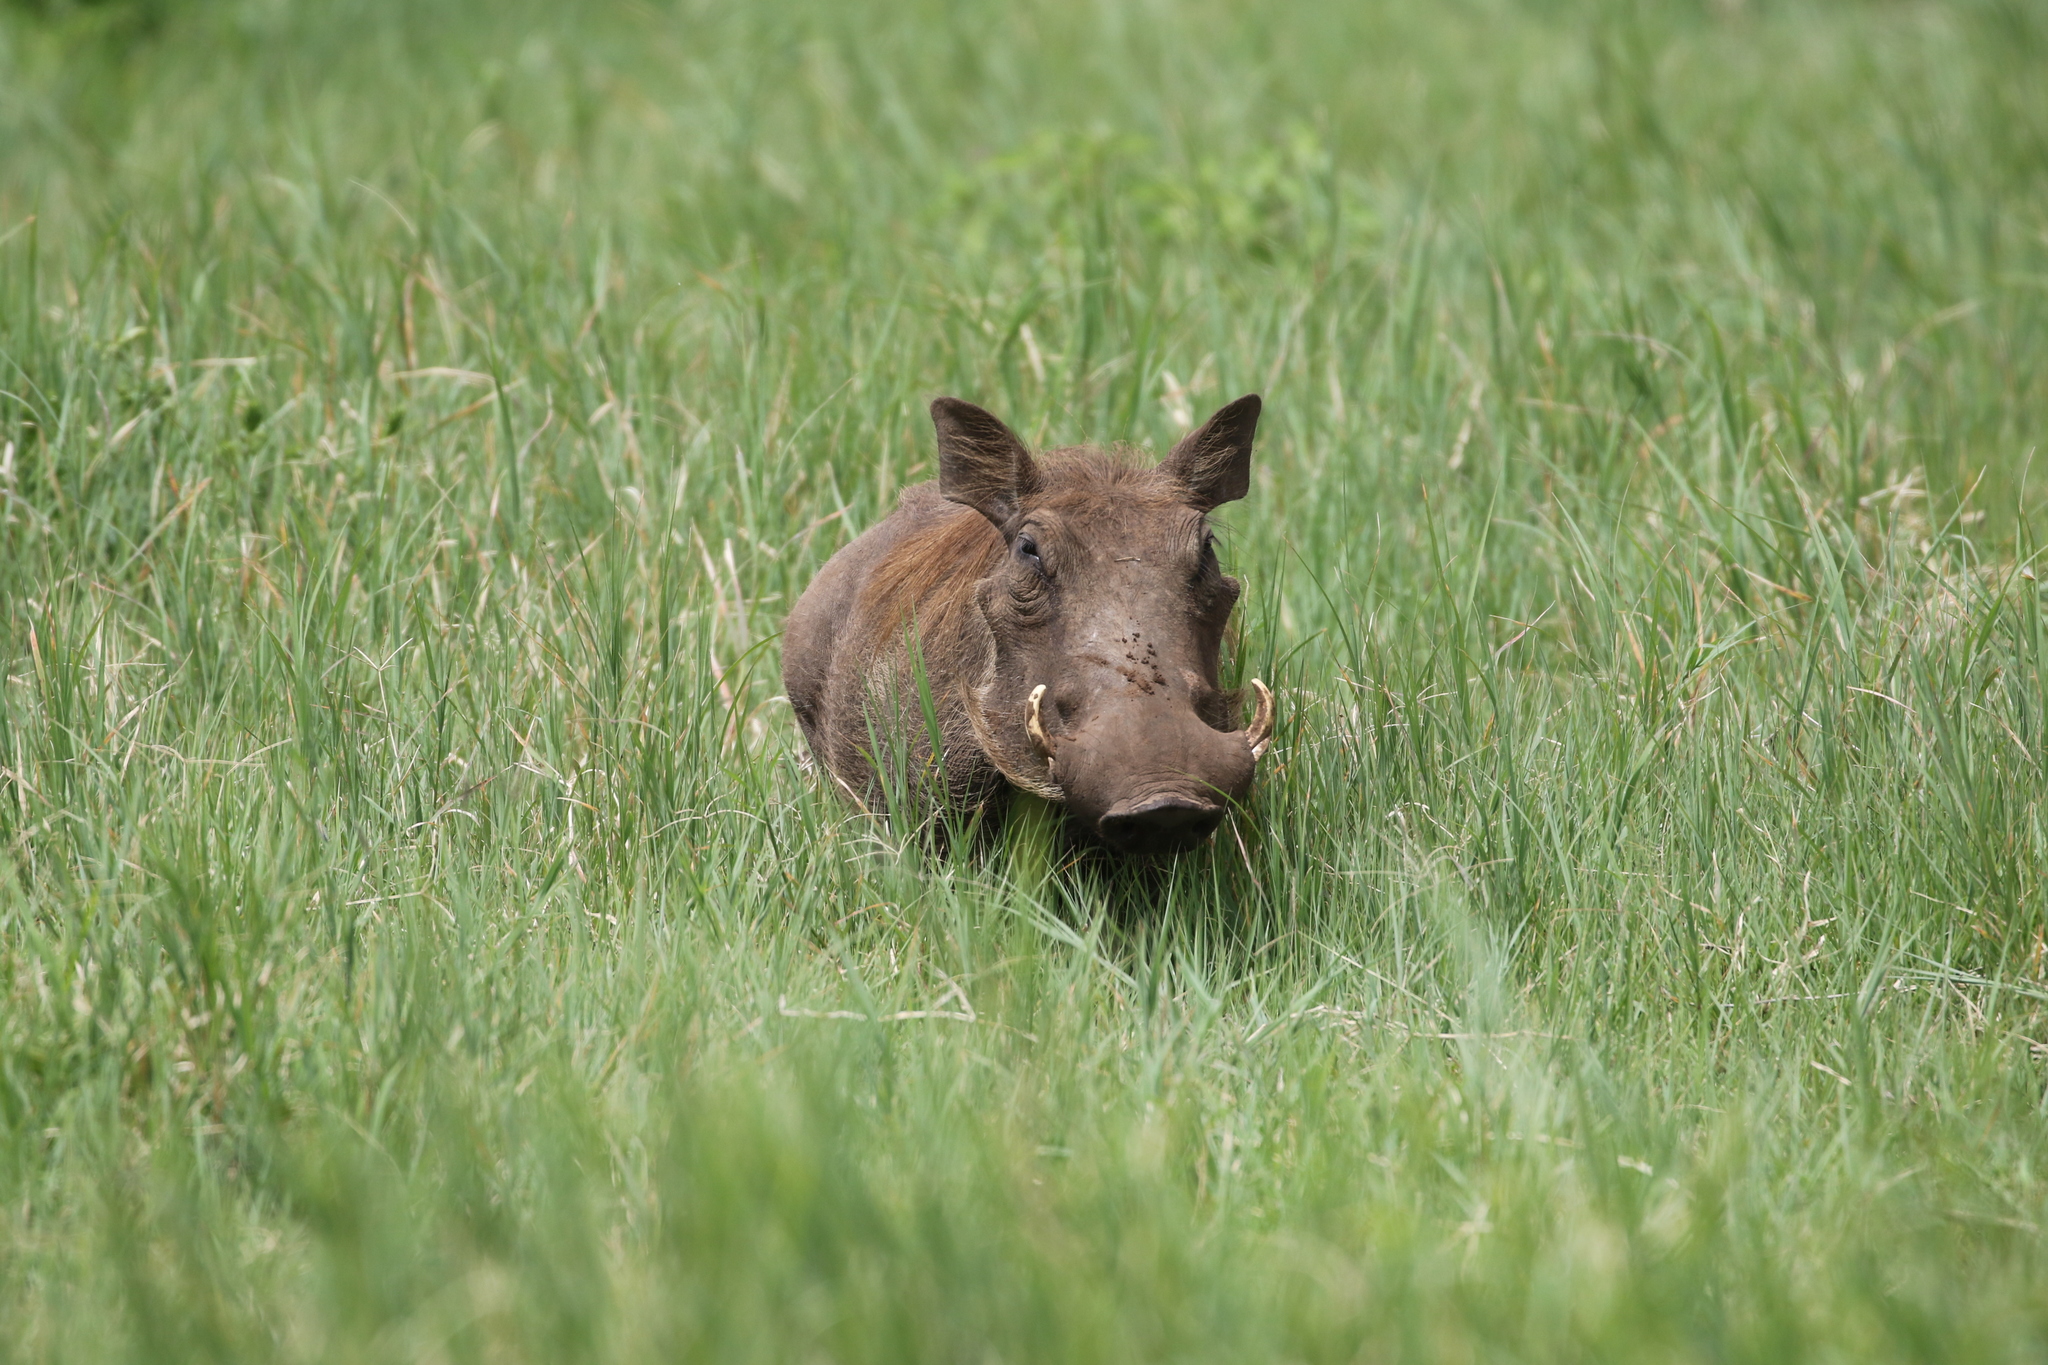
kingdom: Animalia
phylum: Chordata
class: Mammalia
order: Artiodactyla
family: Suidae
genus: Phacochoerus
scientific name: Phacochoerus africanus
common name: Common warthog
